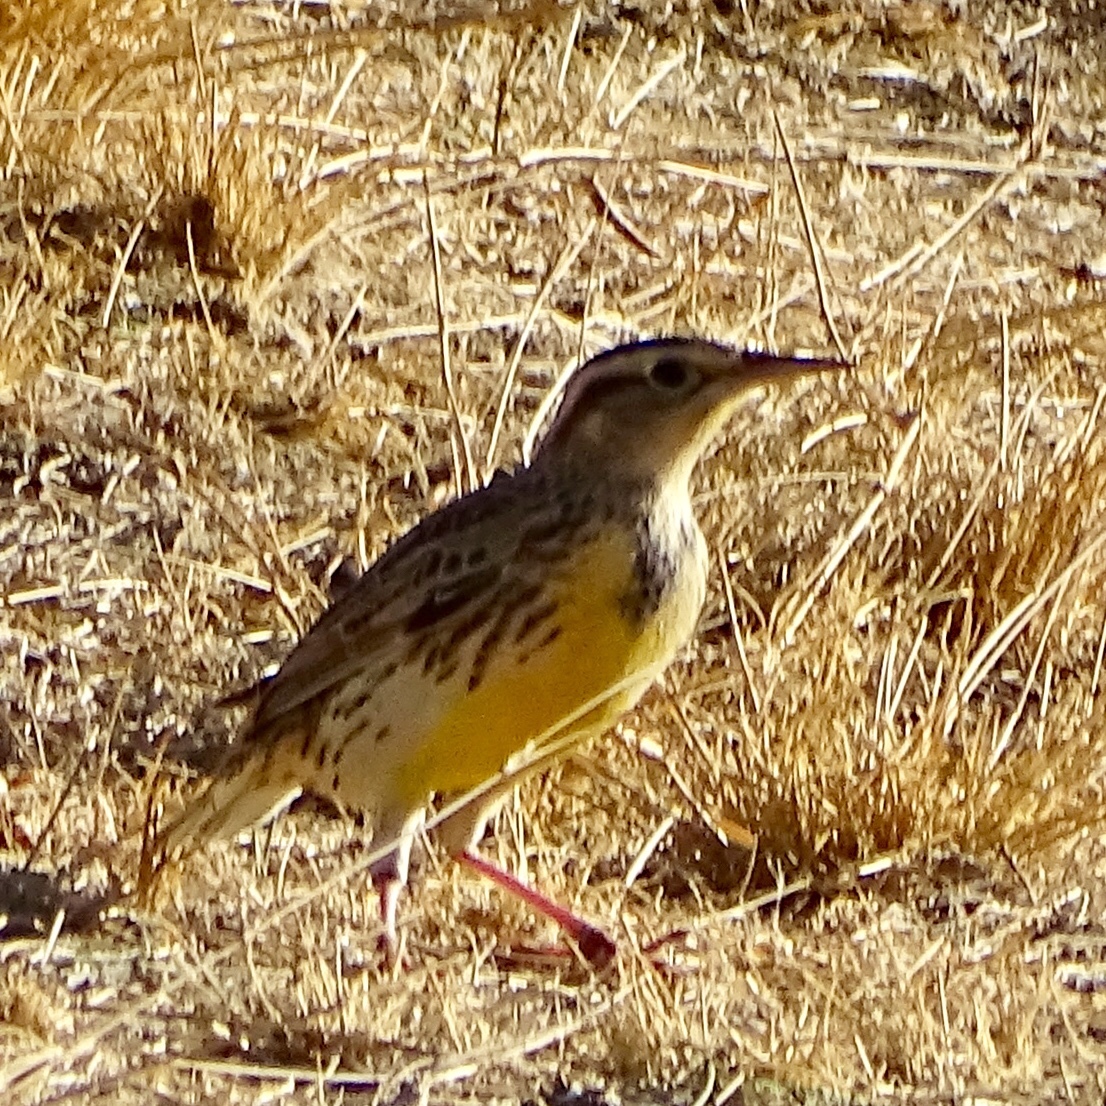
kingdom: Animalia
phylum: Chordata
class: Aves
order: Passeriformes
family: Icteridae
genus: Sturnella
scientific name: Sturnella neglecta
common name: Western meadowlark
